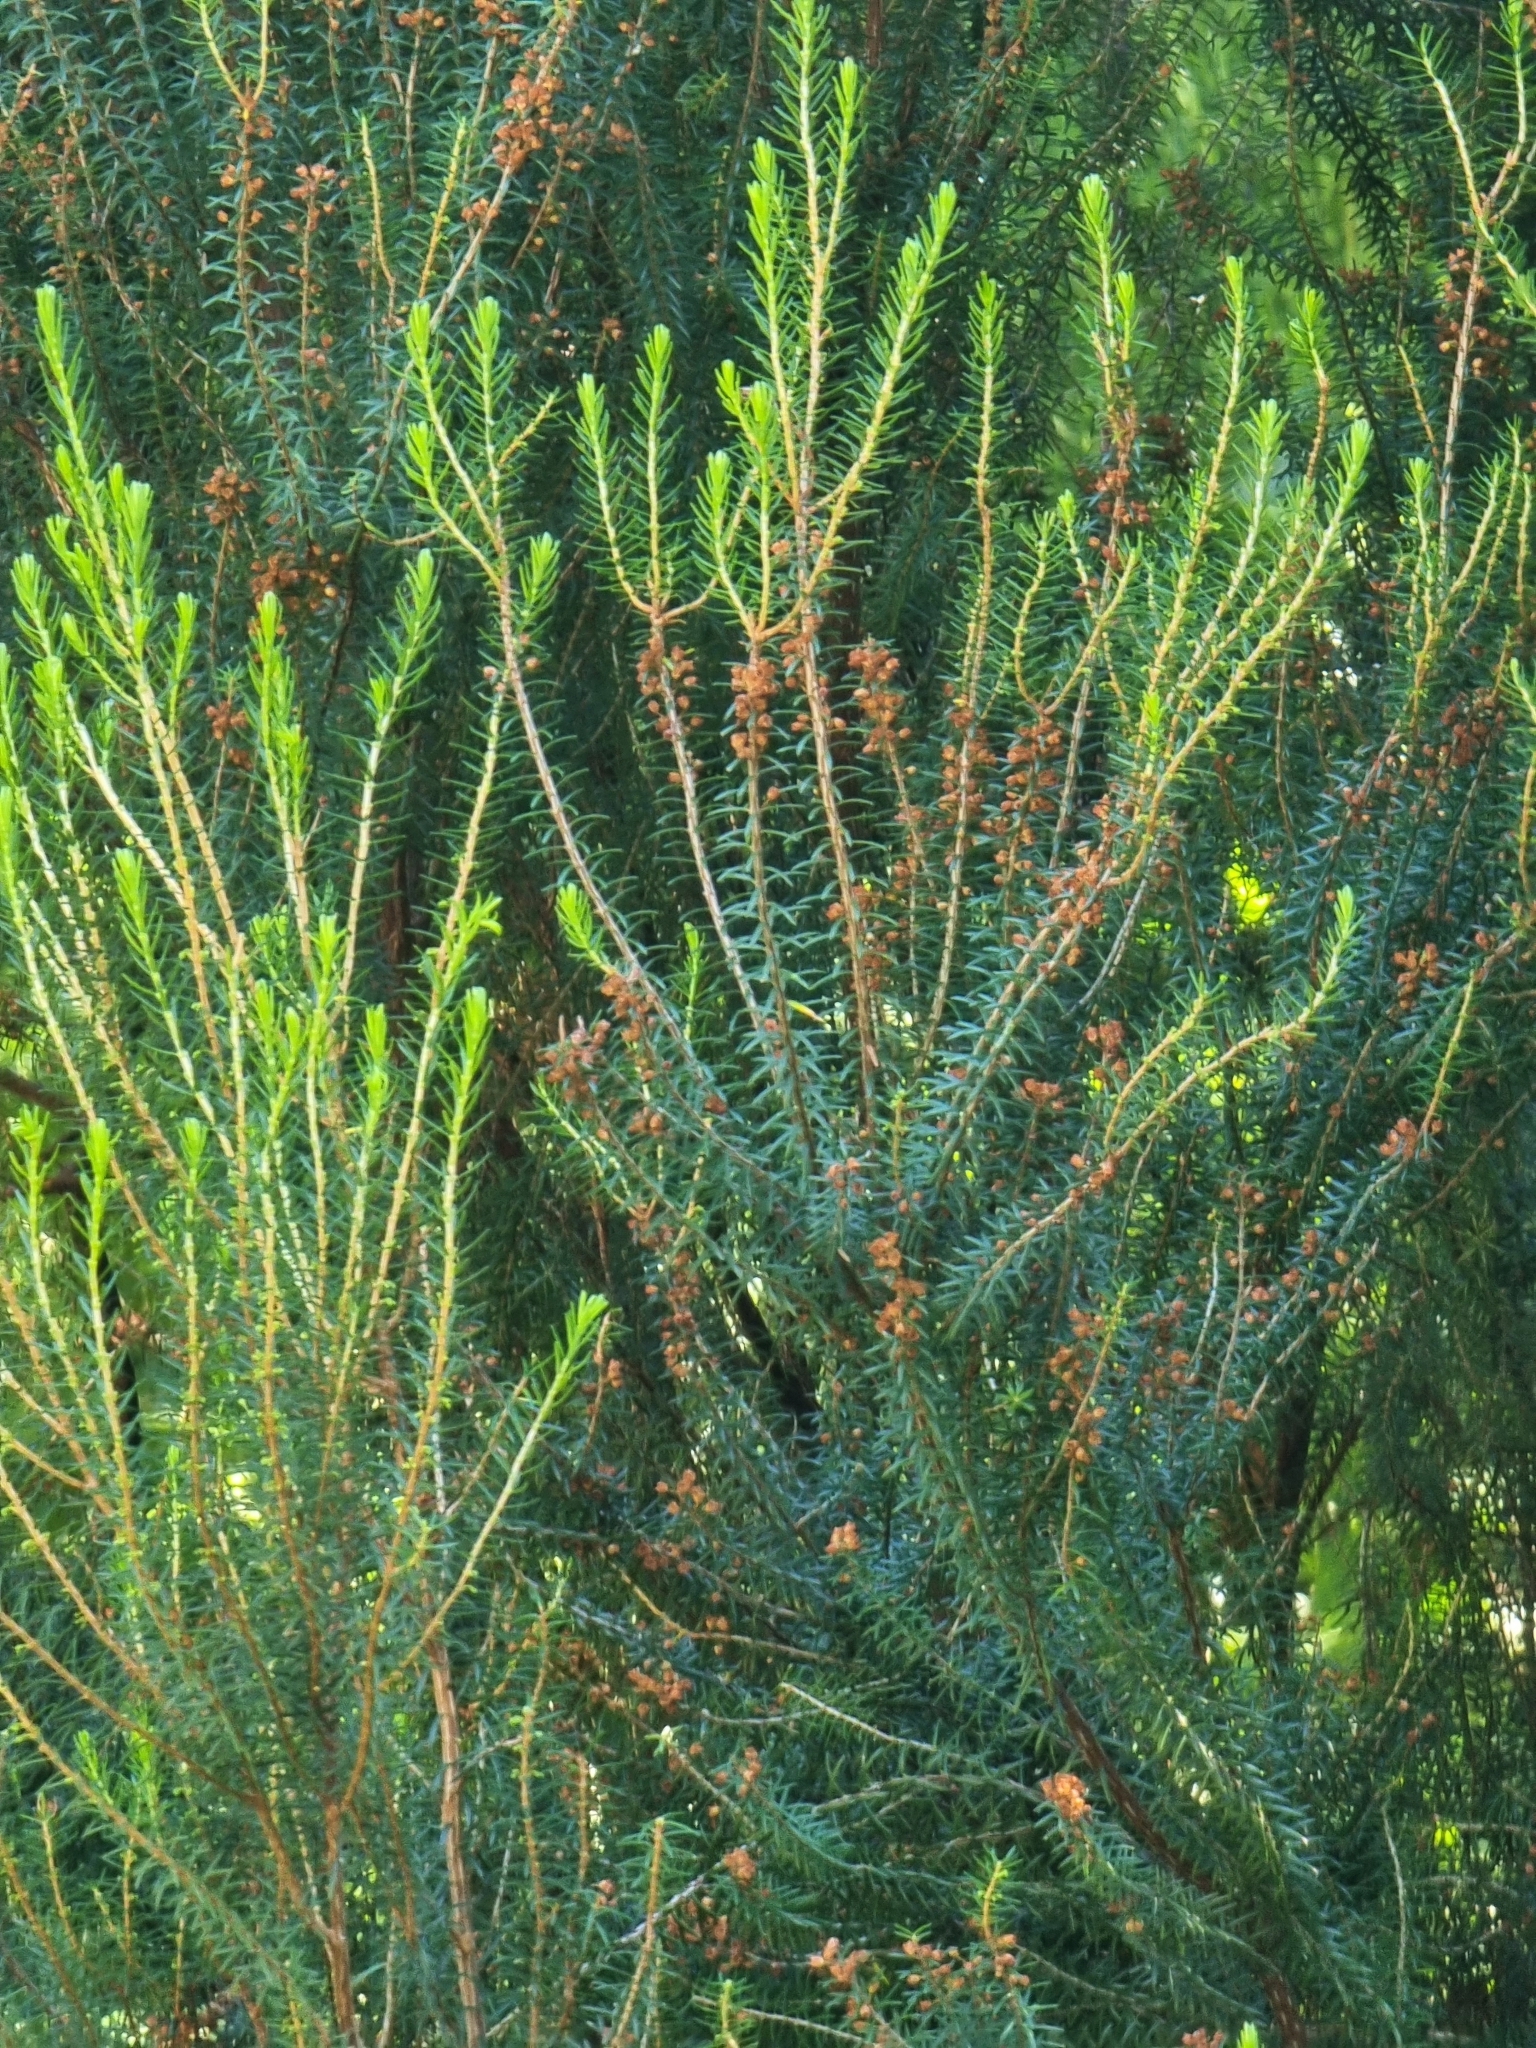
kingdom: Plantae
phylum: Tracheophyta
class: Magnoliopsida
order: Ericales
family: Ericaceae
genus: Erica
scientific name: Erica platycodon
